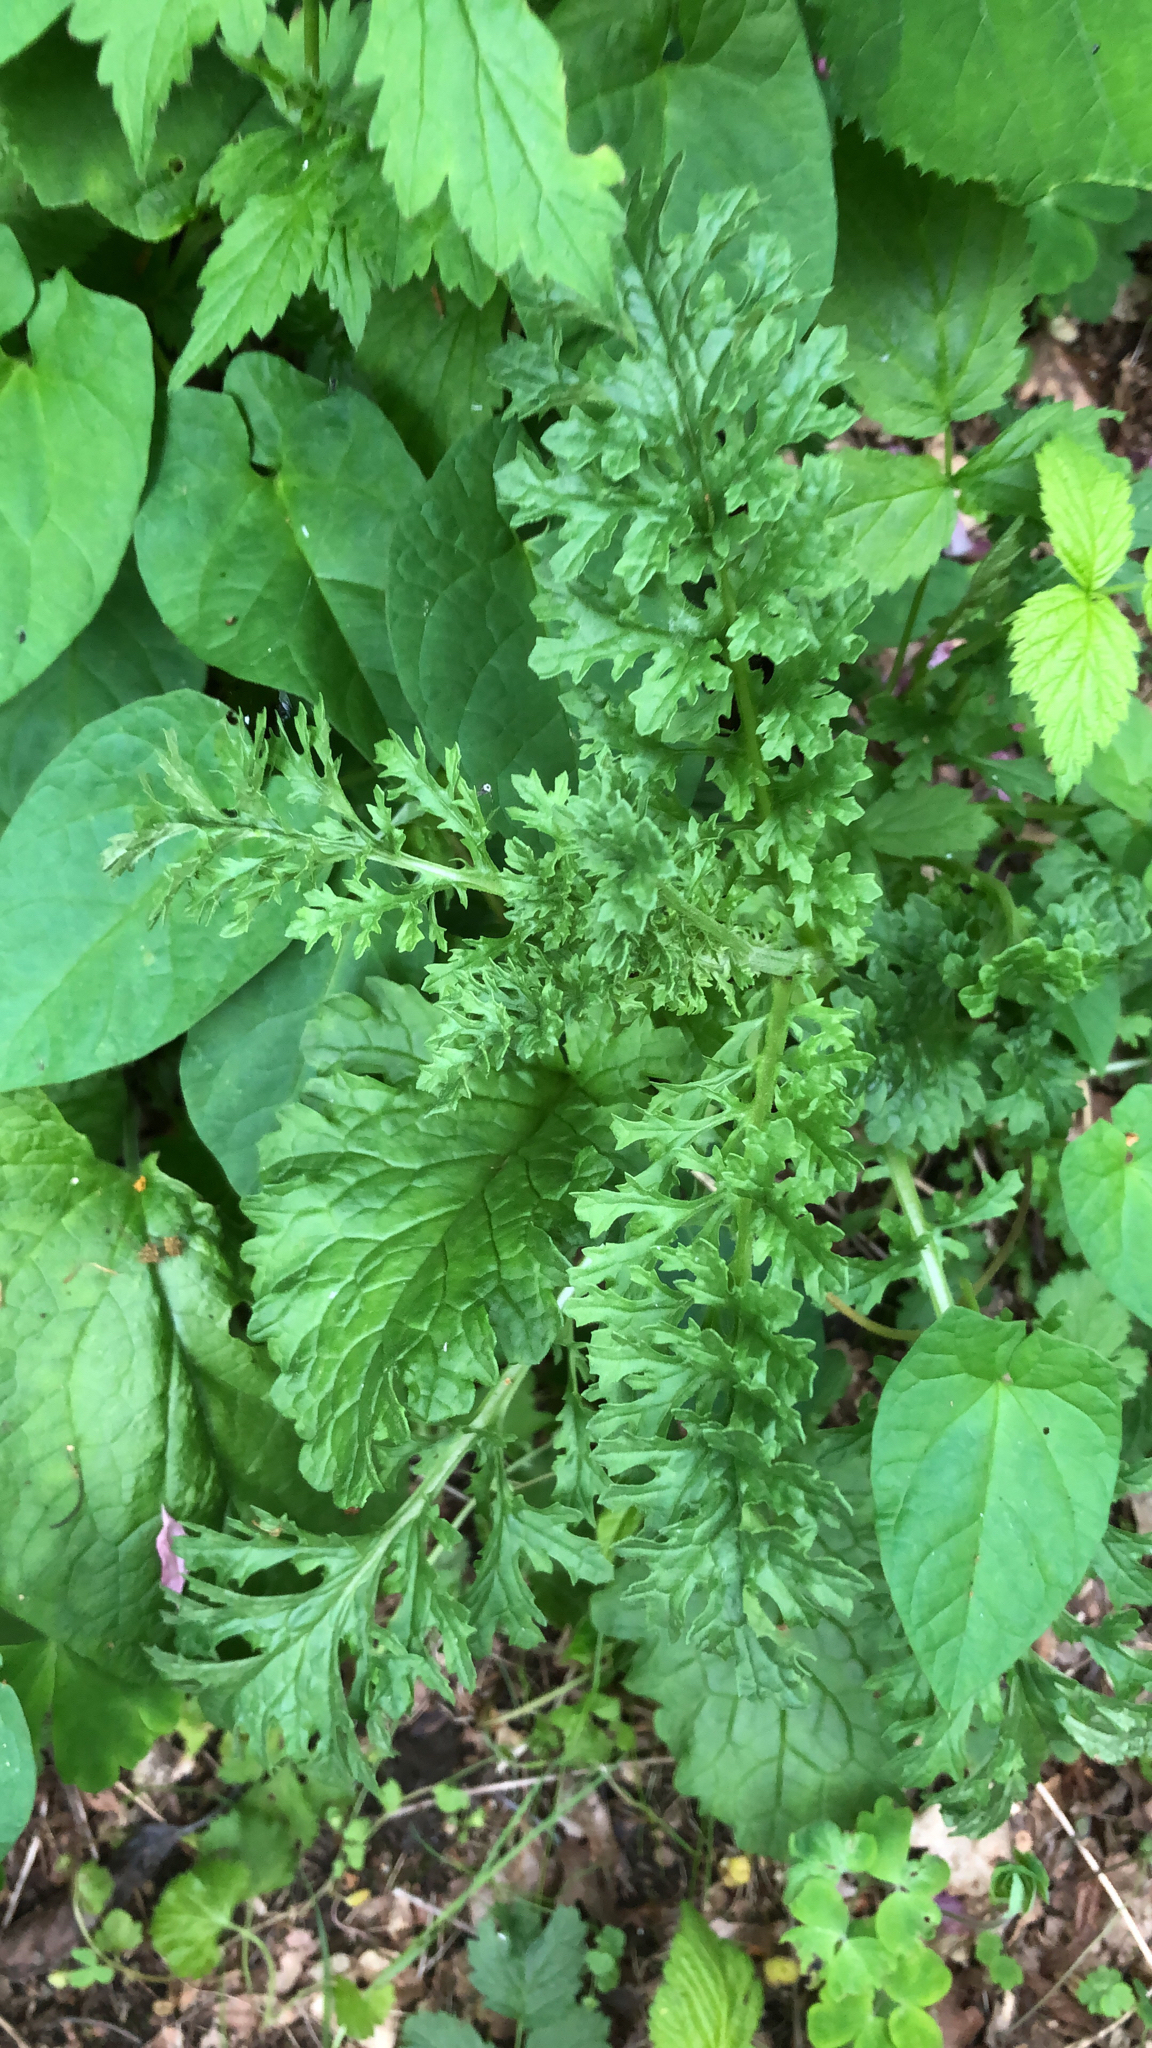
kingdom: Plantae
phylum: Tracheophyta
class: Magnoliopsida
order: Asterales
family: Asteraceae
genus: Jacobaea
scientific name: Jacobaea vulgaris
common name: Stinking willie
